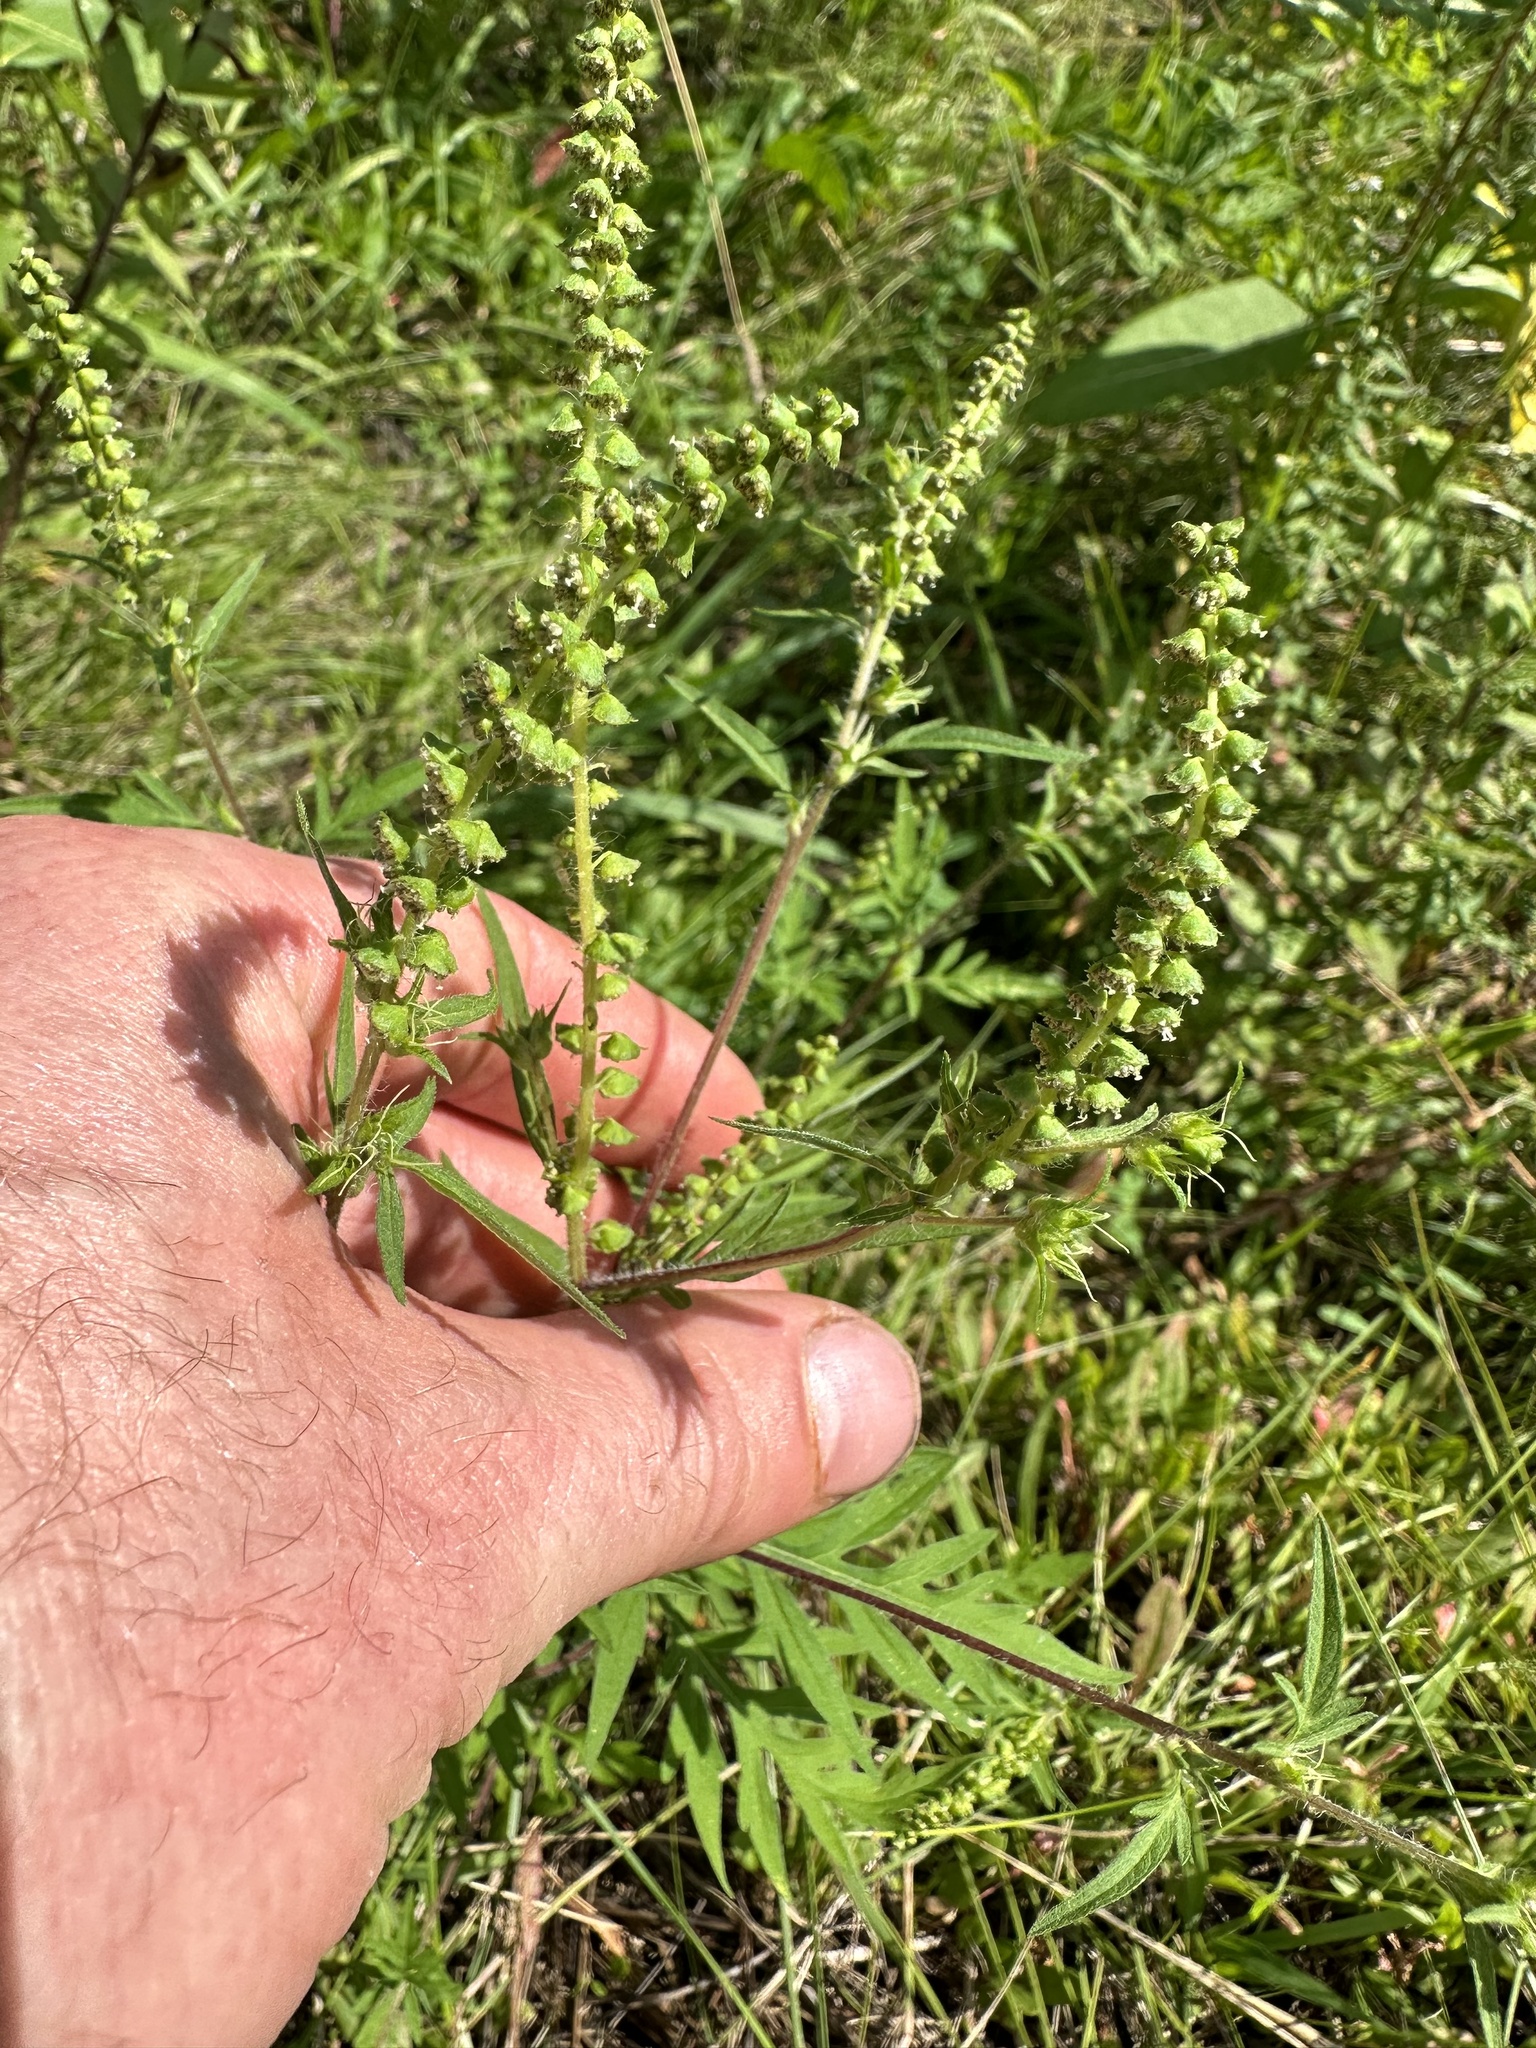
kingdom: Plantae
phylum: Tracheophyta
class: Magnoliopsida
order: Asterales
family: Asteraceae
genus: Ambrosia
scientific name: Ambrosia artemisiifolia
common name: Annual ragweed
